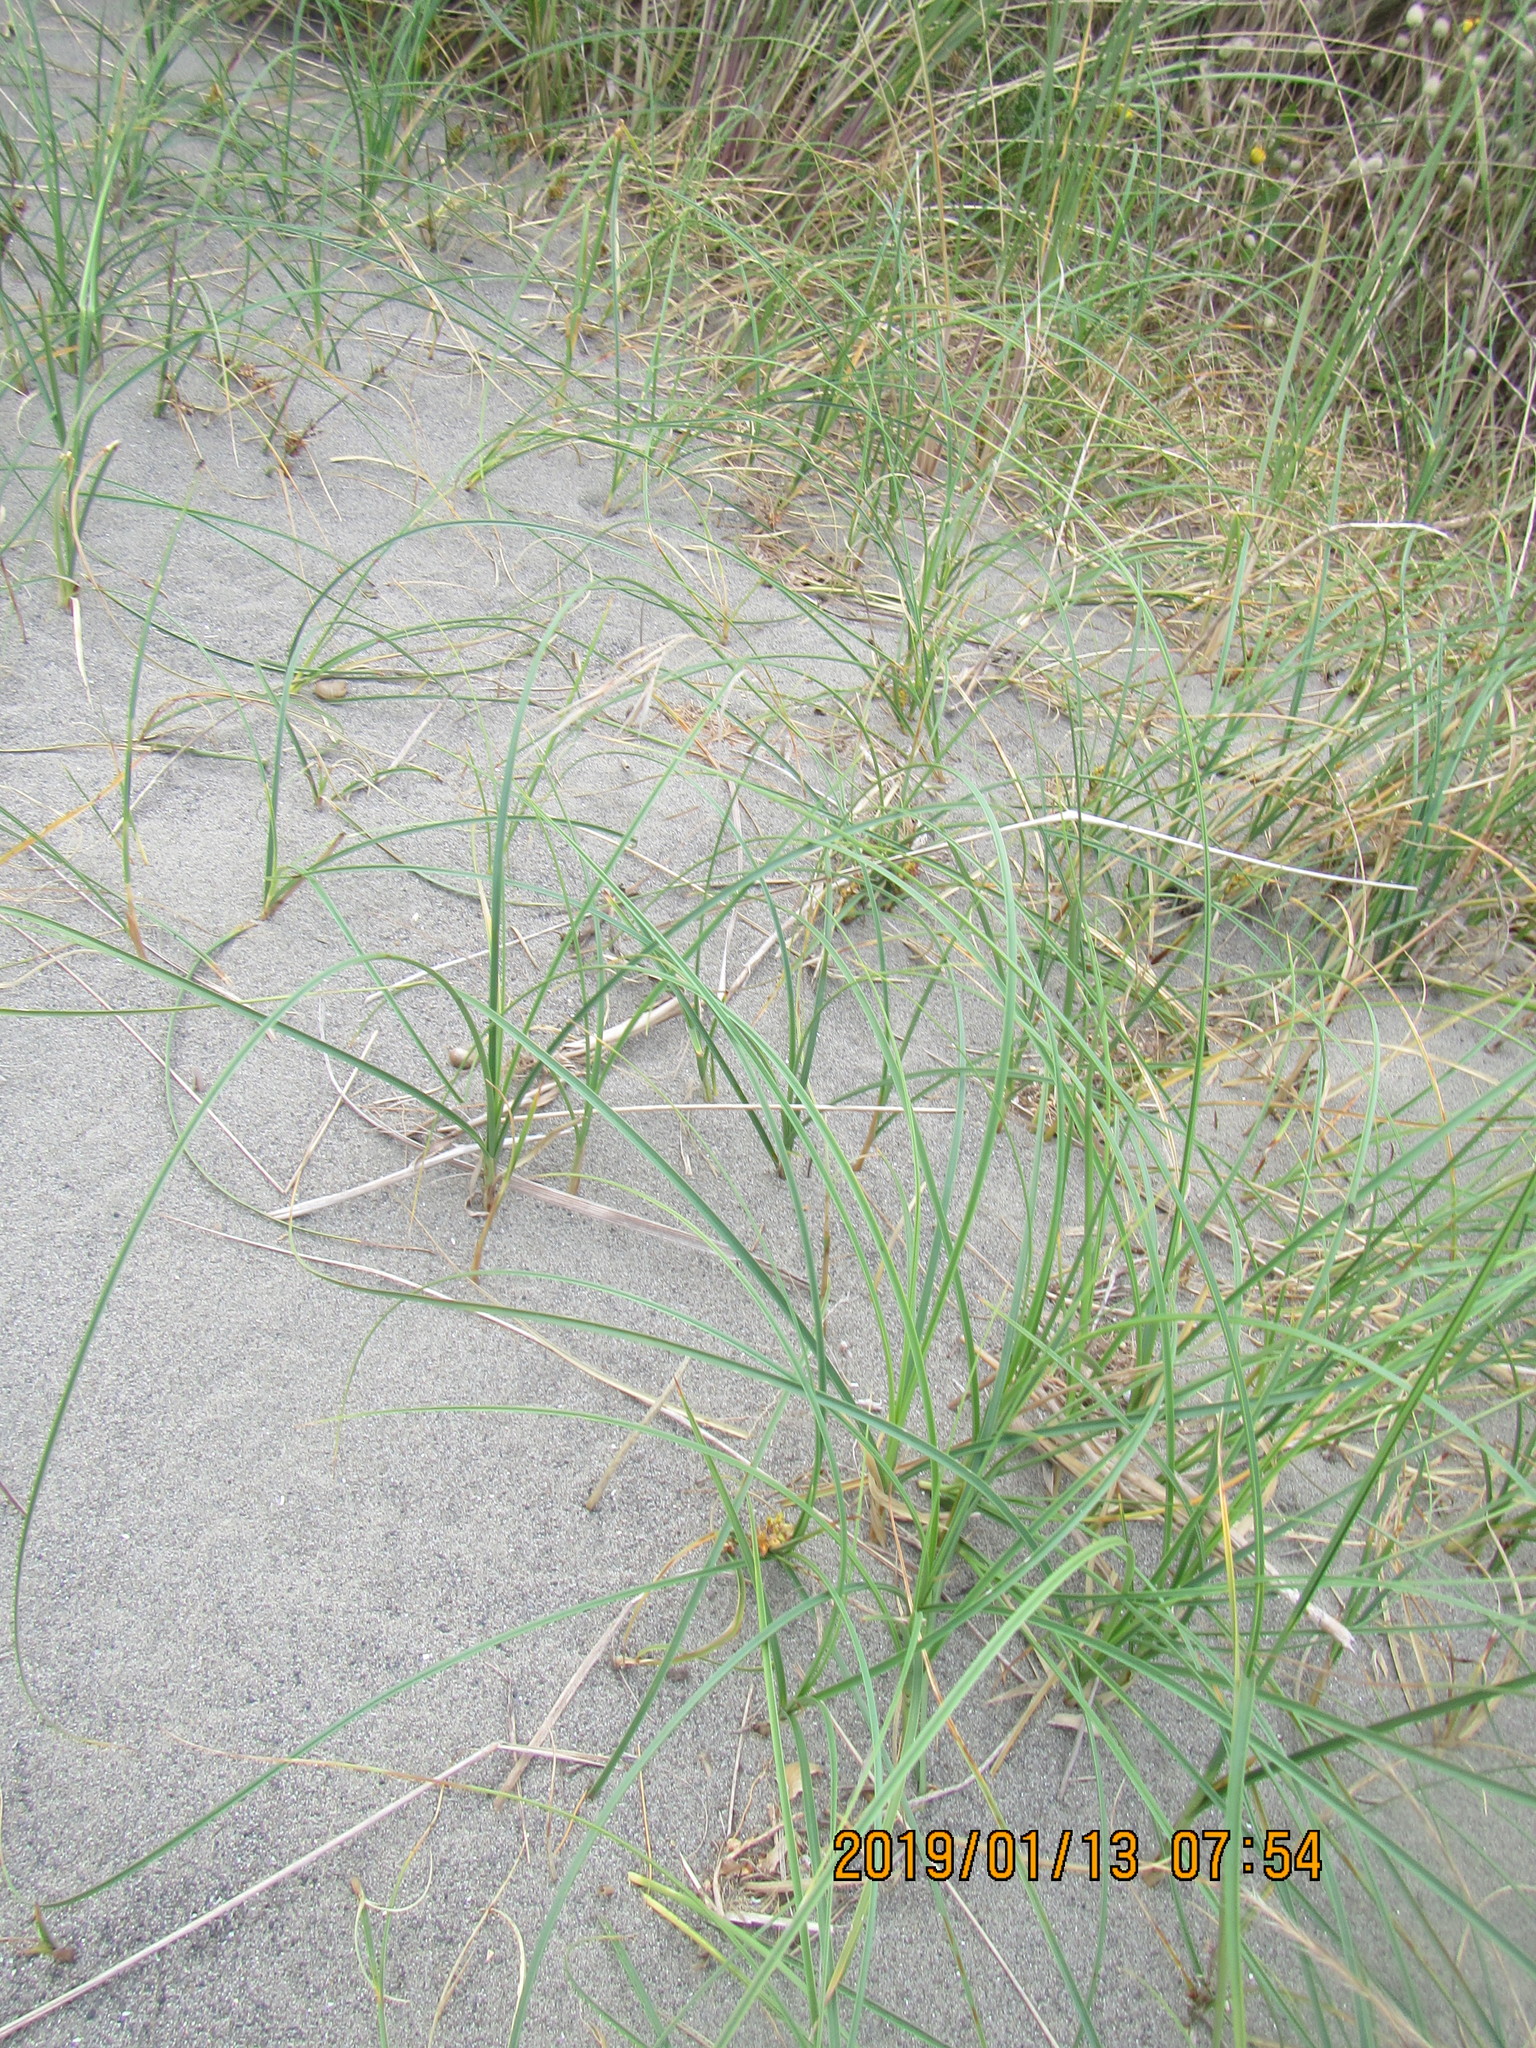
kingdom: Plantae
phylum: Tracheophyta
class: Liliopsida
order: Poales
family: Cyperaceae
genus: Carex
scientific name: Carex pumila
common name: Dwarf sedge
